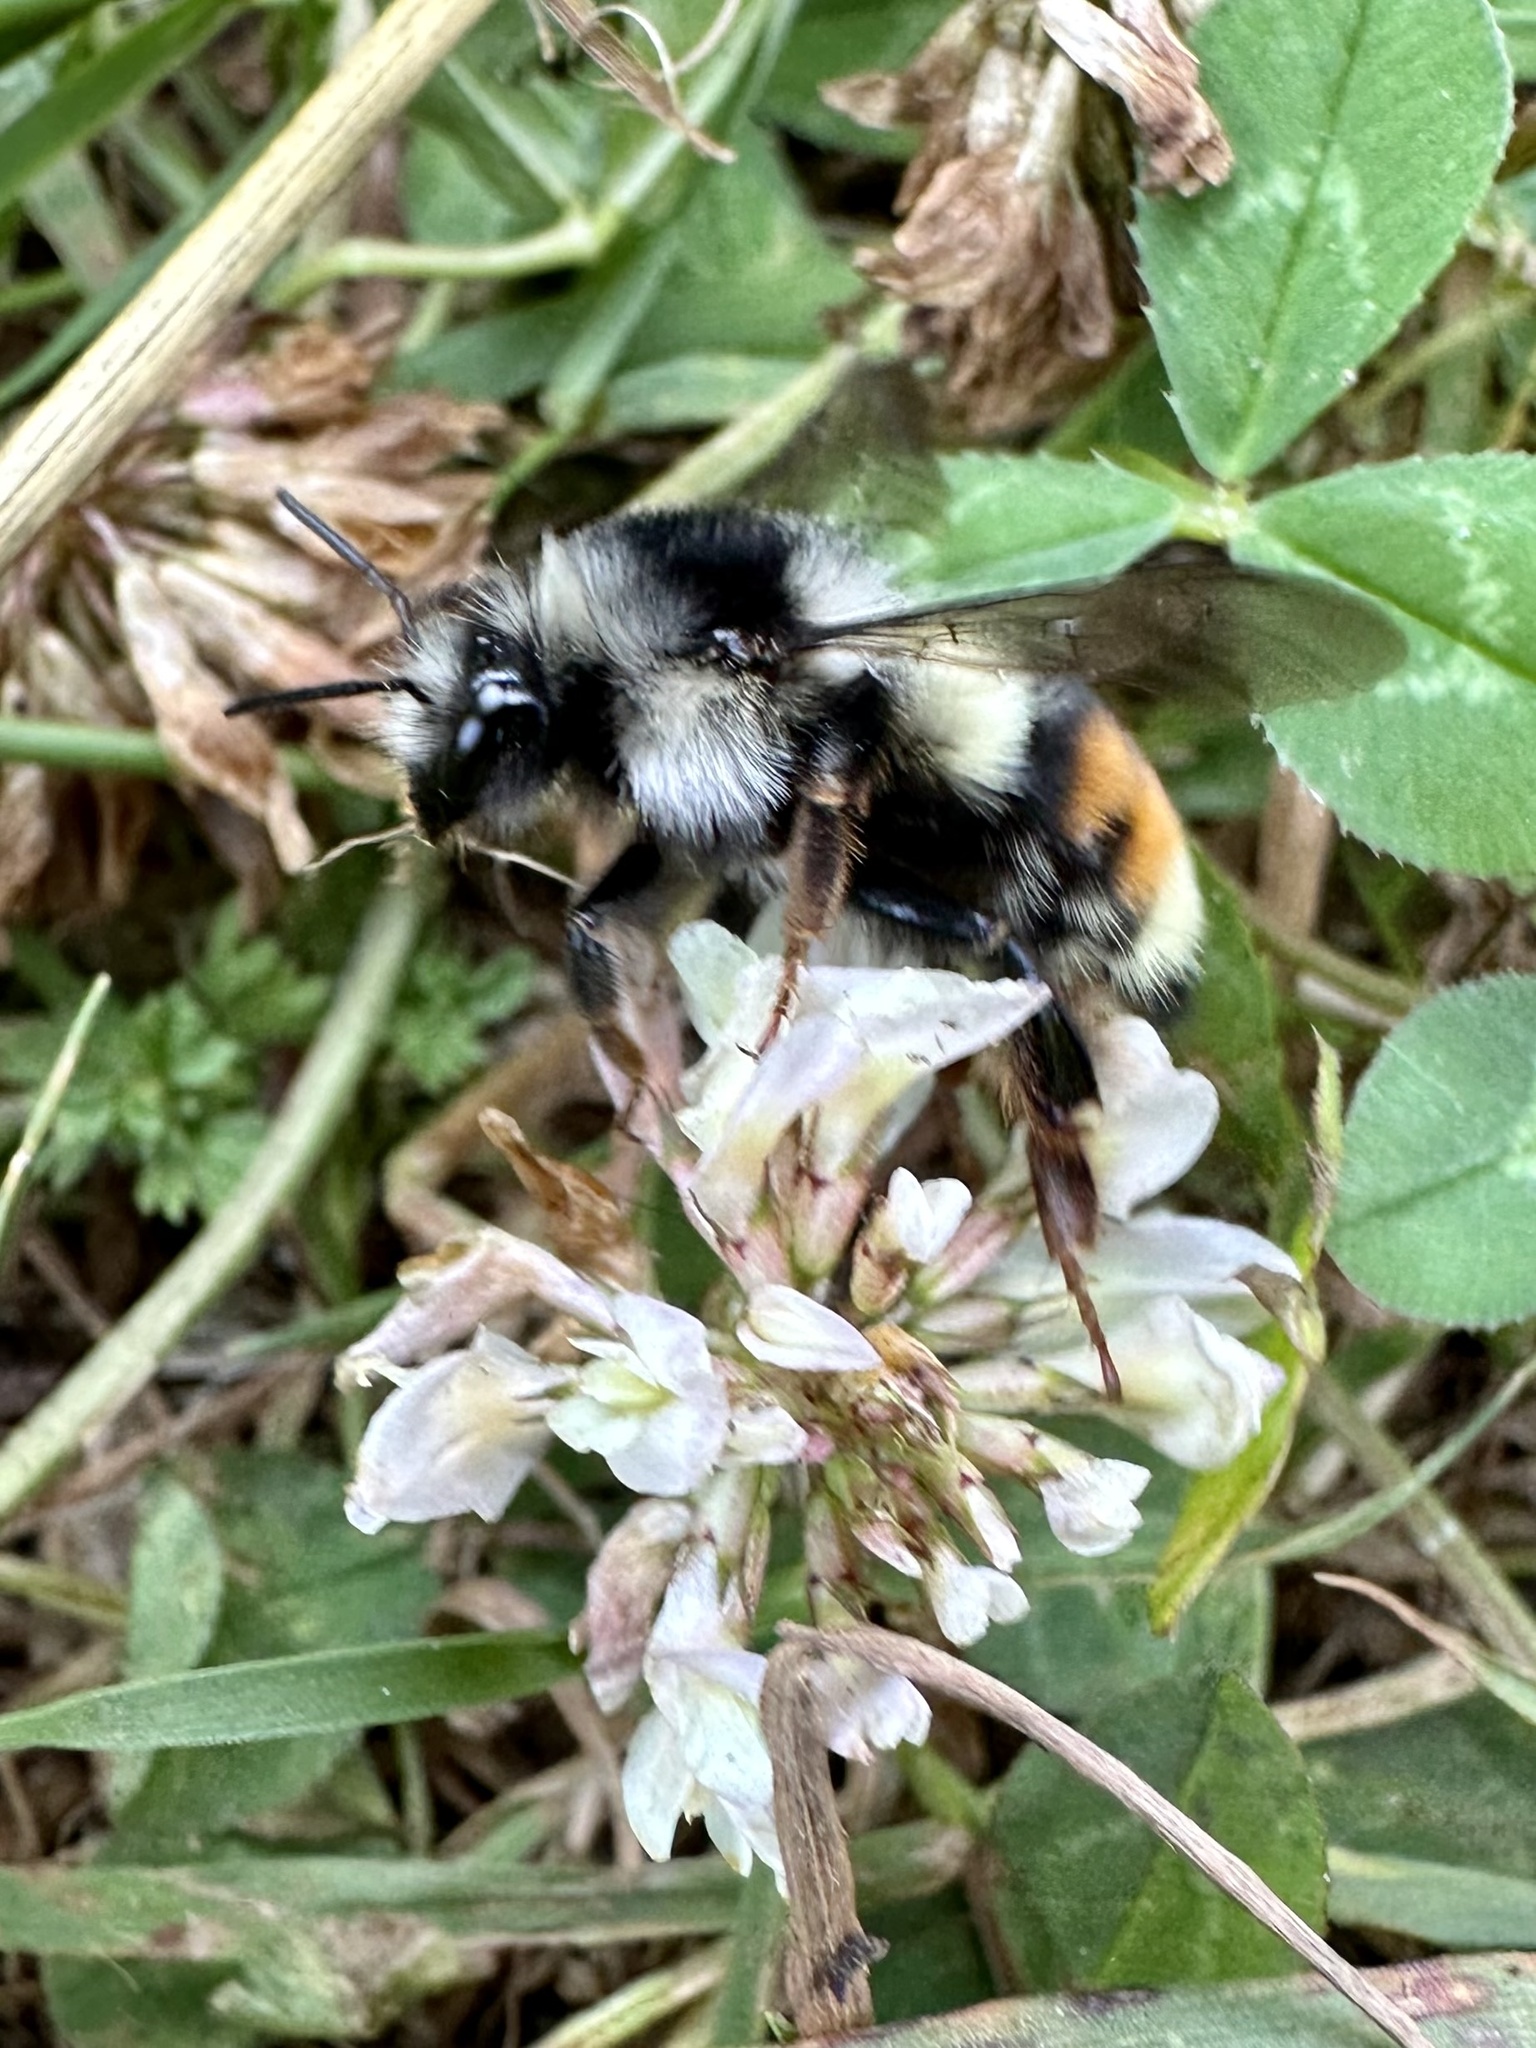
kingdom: Animalia
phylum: Arthropoda
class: Insecta
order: Hymenoptera
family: Apidae
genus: Bombus
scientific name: Bombus vancouverensis
